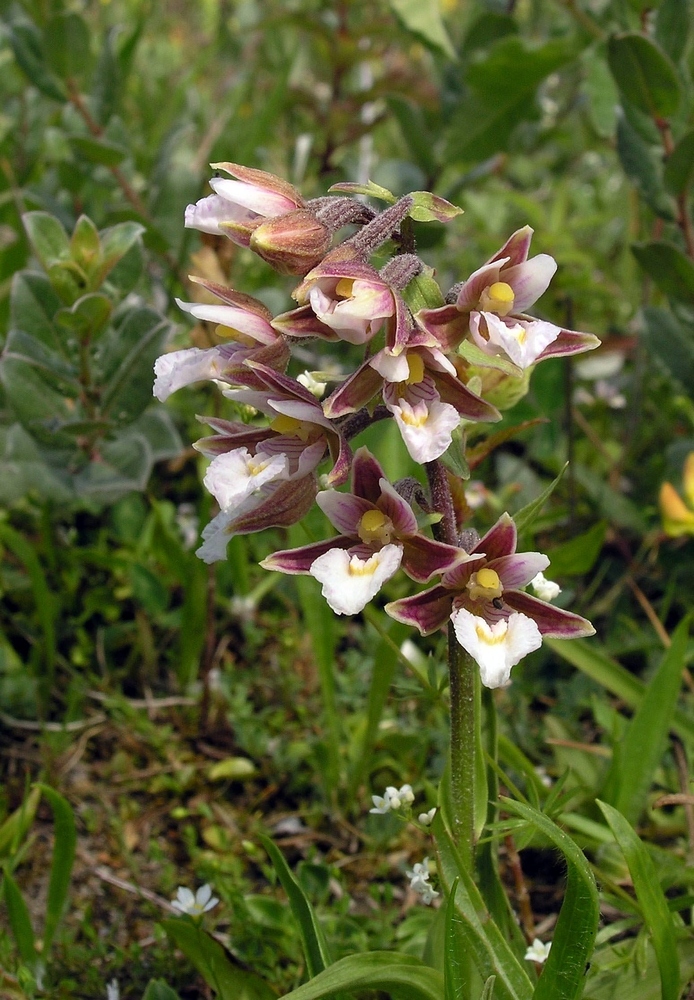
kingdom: Plantae
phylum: Tracheophyta
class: Liliopsida
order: Asparagales
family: Orchidaceae
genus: Epipactis
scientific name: Epipactis palustris
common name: Marsh helleborine
